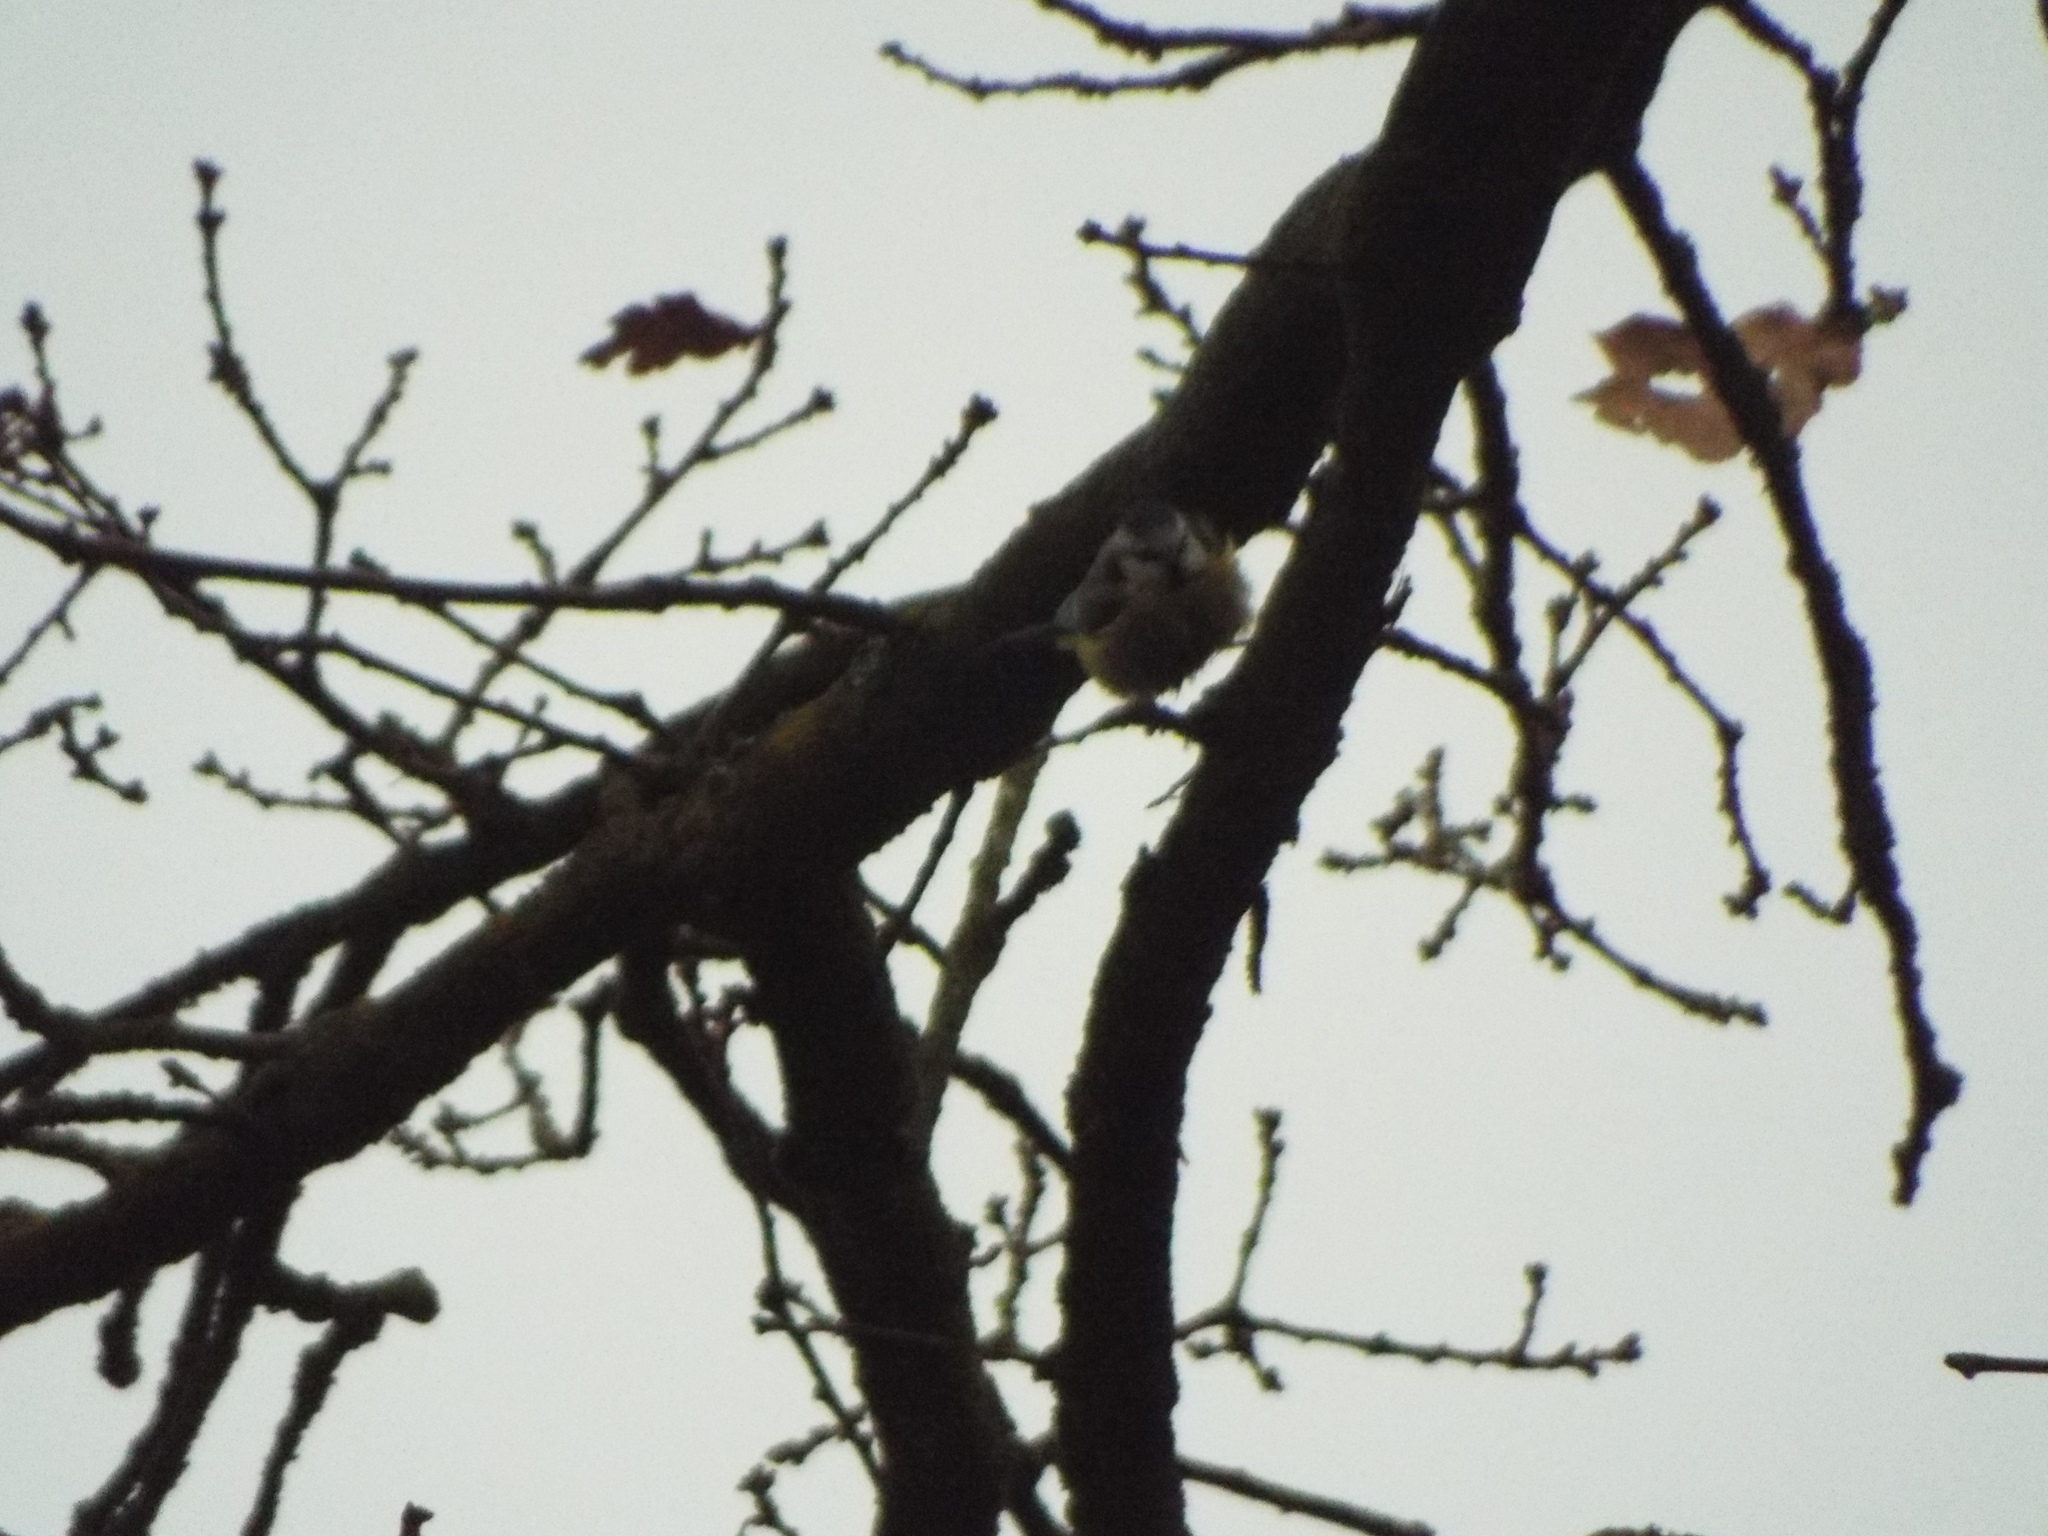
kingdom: Animalia
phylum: Chordata
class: Aves
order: Passeriformes
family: Paridae
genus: Cyanistes
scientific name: Cyanistes caeruleus
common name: Eurasian blue tit
